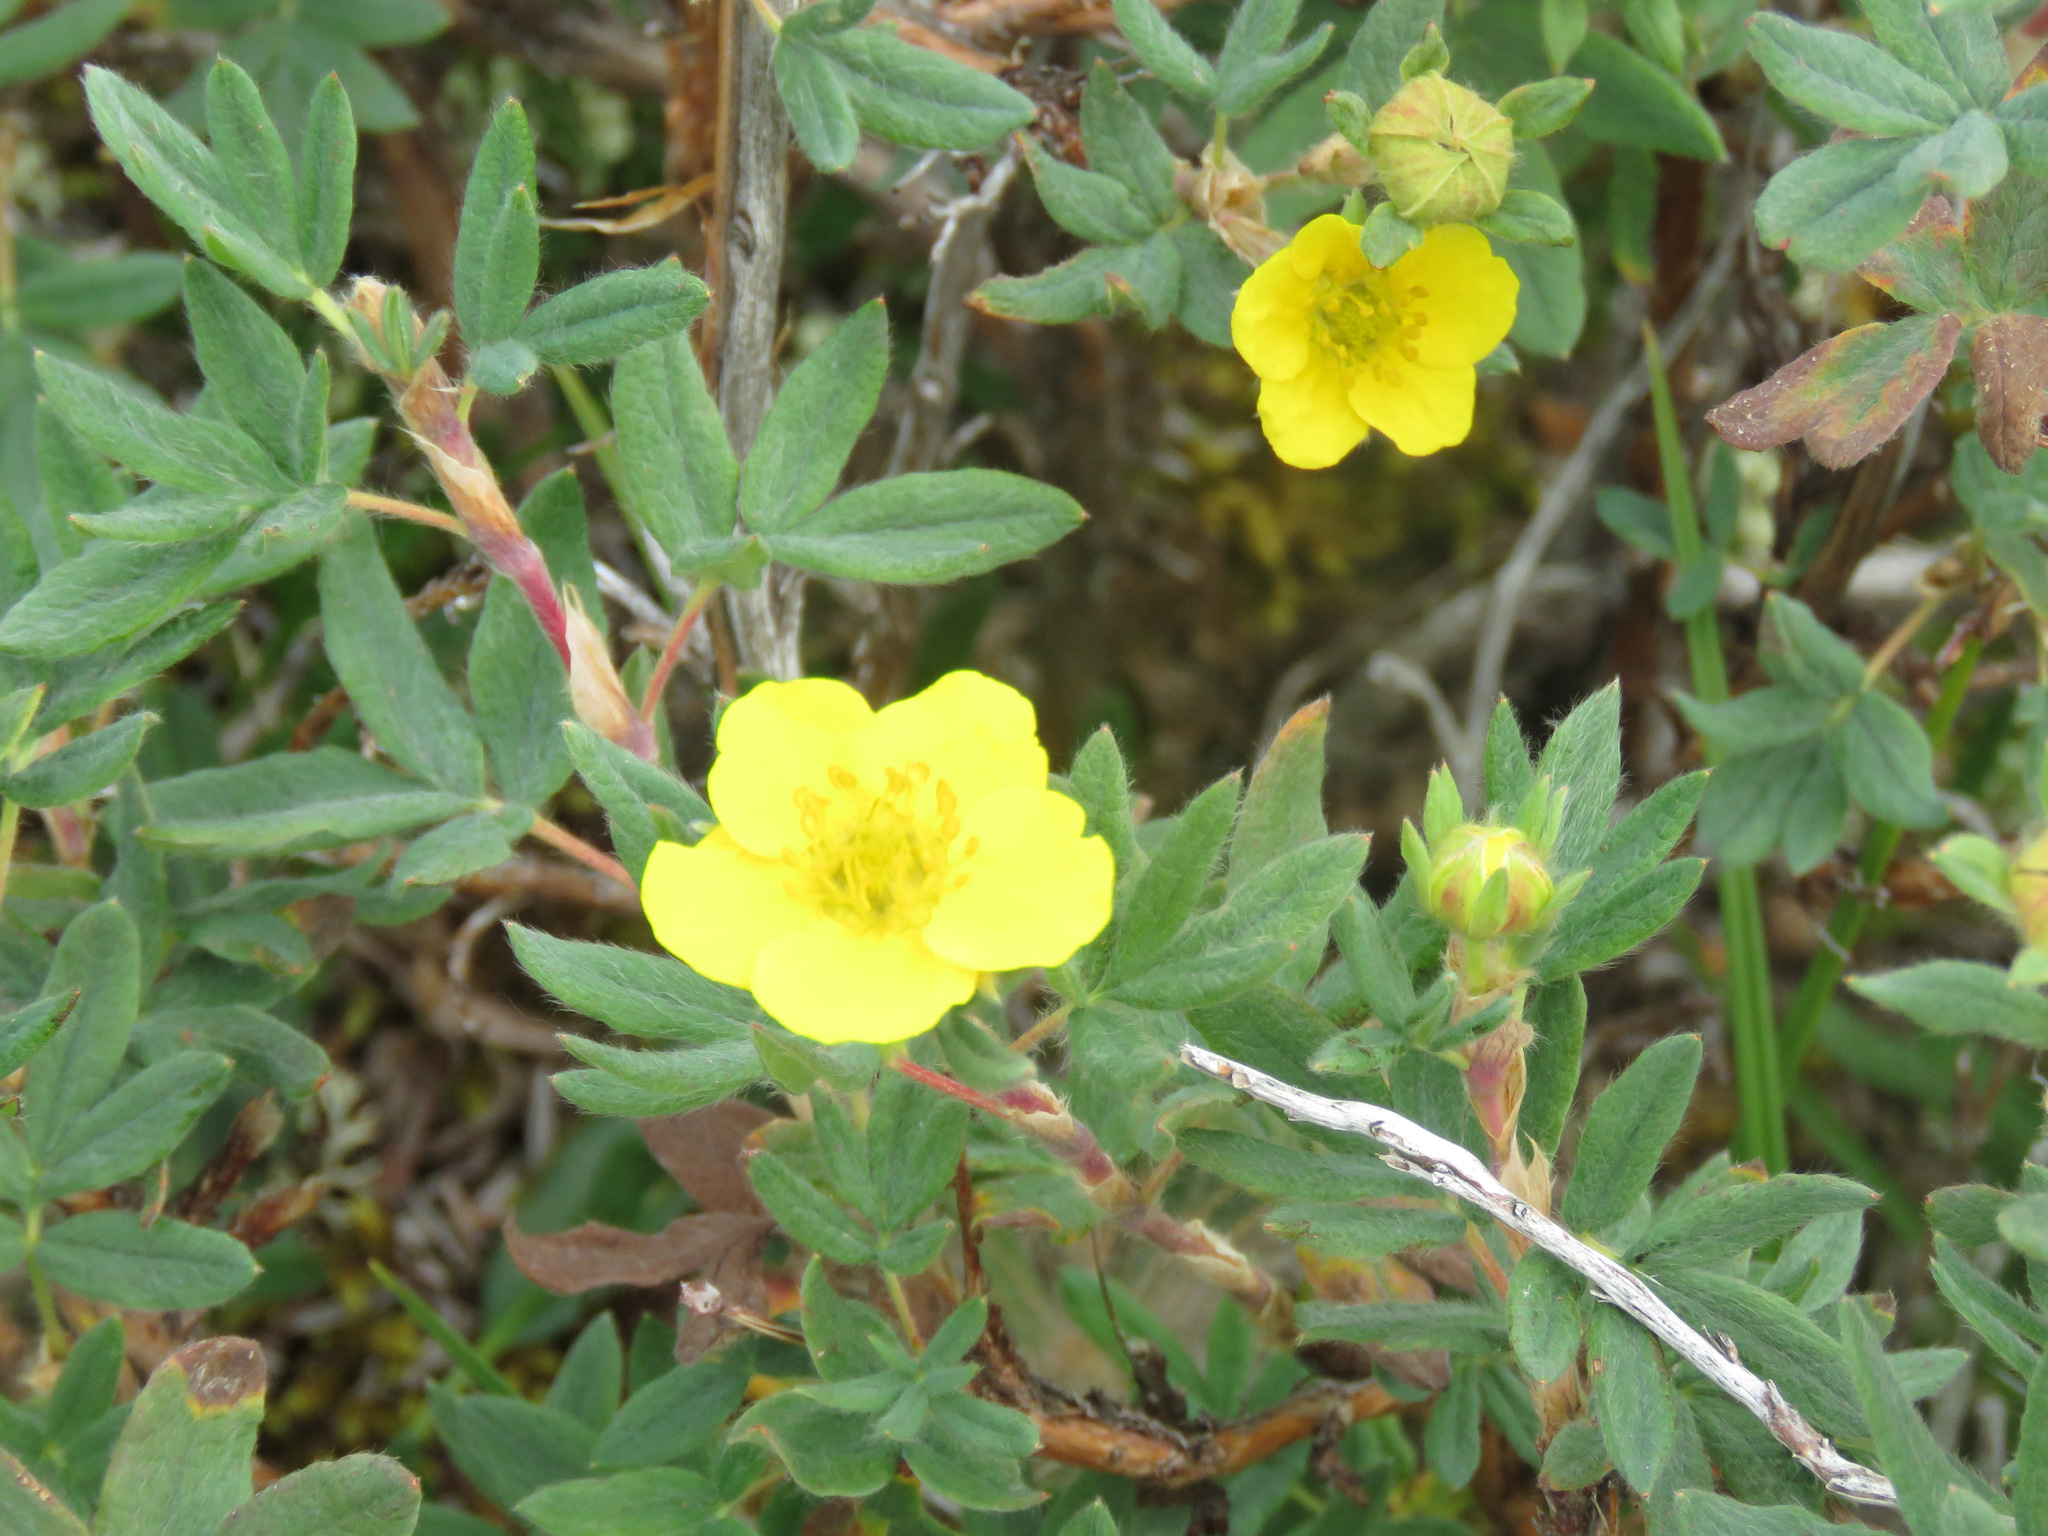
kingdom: Plantae
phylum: Tracheophyta
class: Magnoliopsida
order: Rosales
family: Rosaceae
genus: Dasiphora
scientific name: Dasiphora fruticosa
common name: Shrubby cinquefoil
